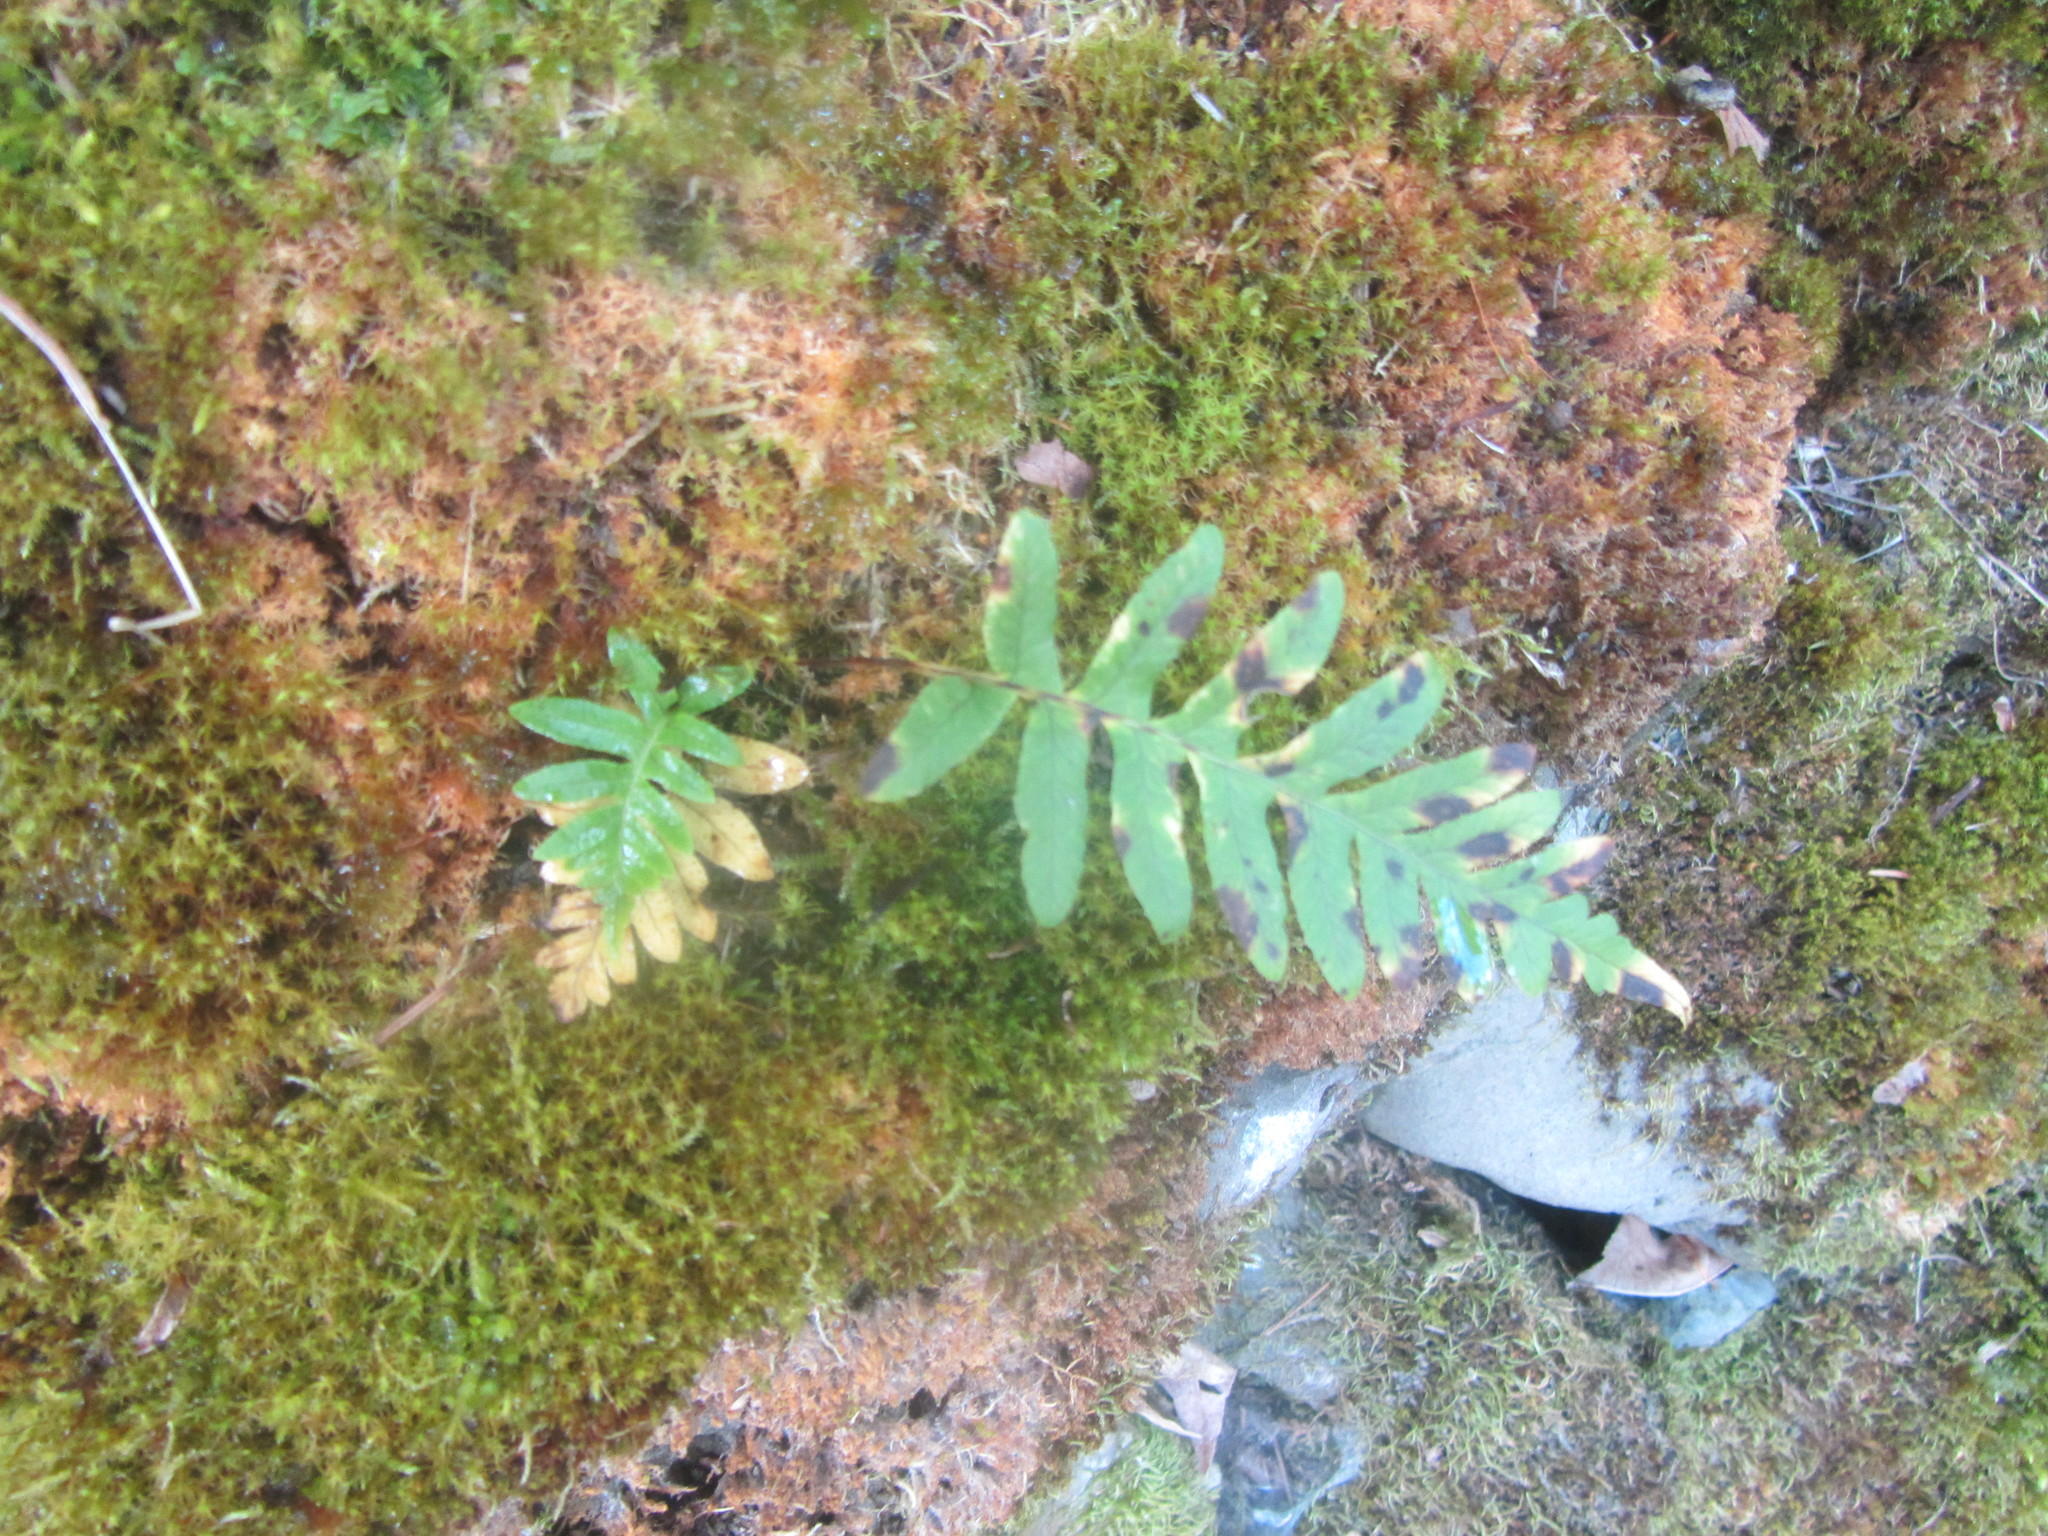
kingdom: Plantae
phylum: Tracheophyta
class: Polypodiopsida
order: Polypodiales
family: Polypodiaceae
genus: Polypodium
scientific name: Polypodium glycyrrhiza
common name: Licorice fern
